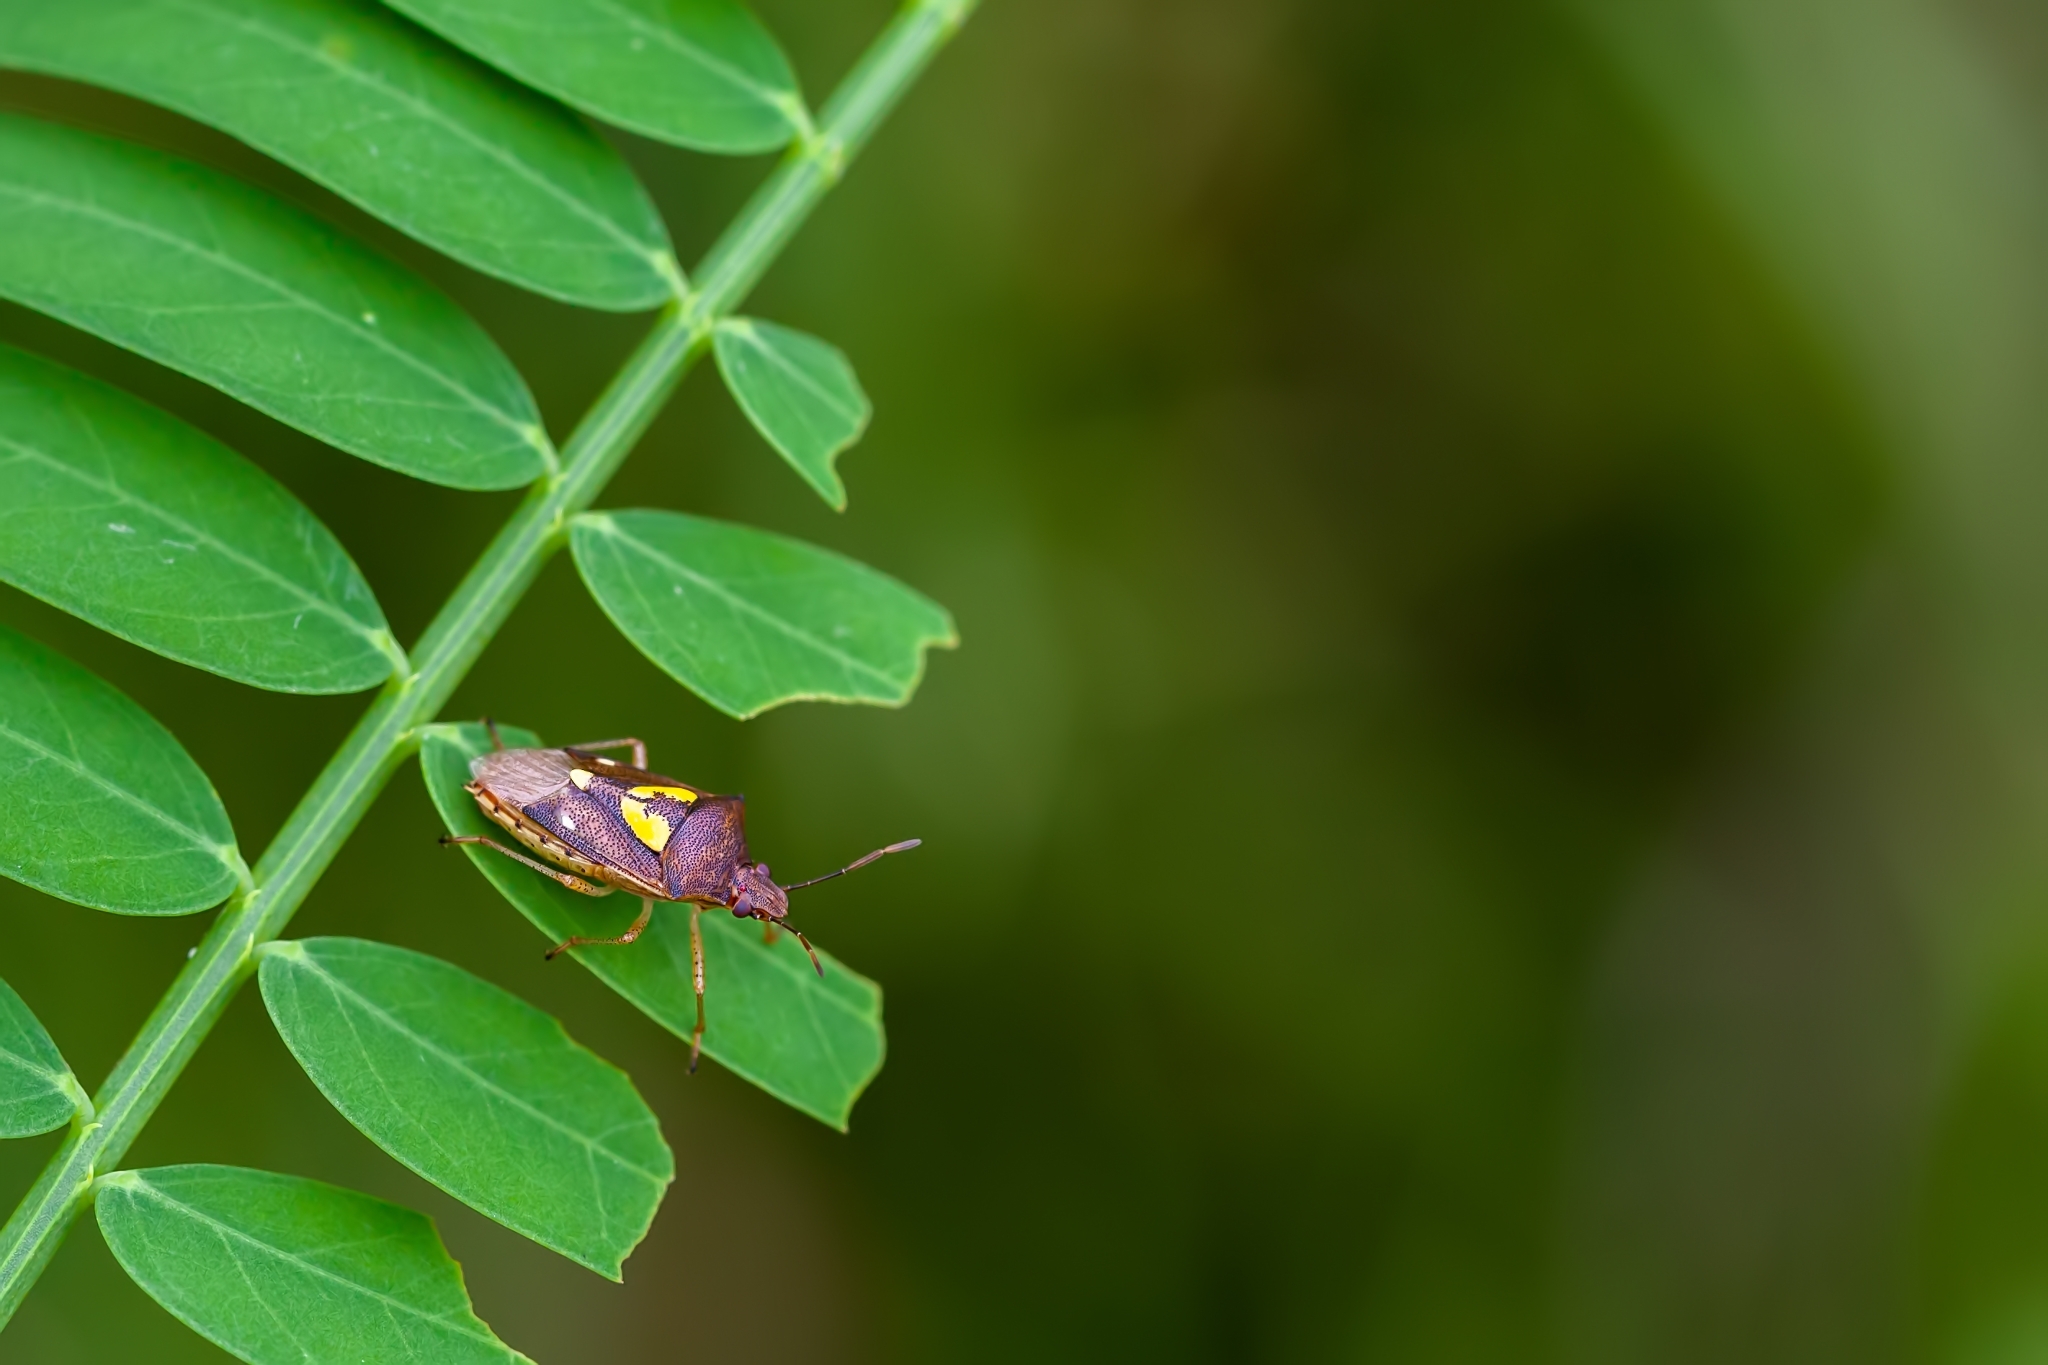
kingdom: Animalia
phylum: Arthropoda
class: Insecta
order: Hemiptera
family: Pentatomidae
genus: Oebalus
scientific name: Oebalus insularis
